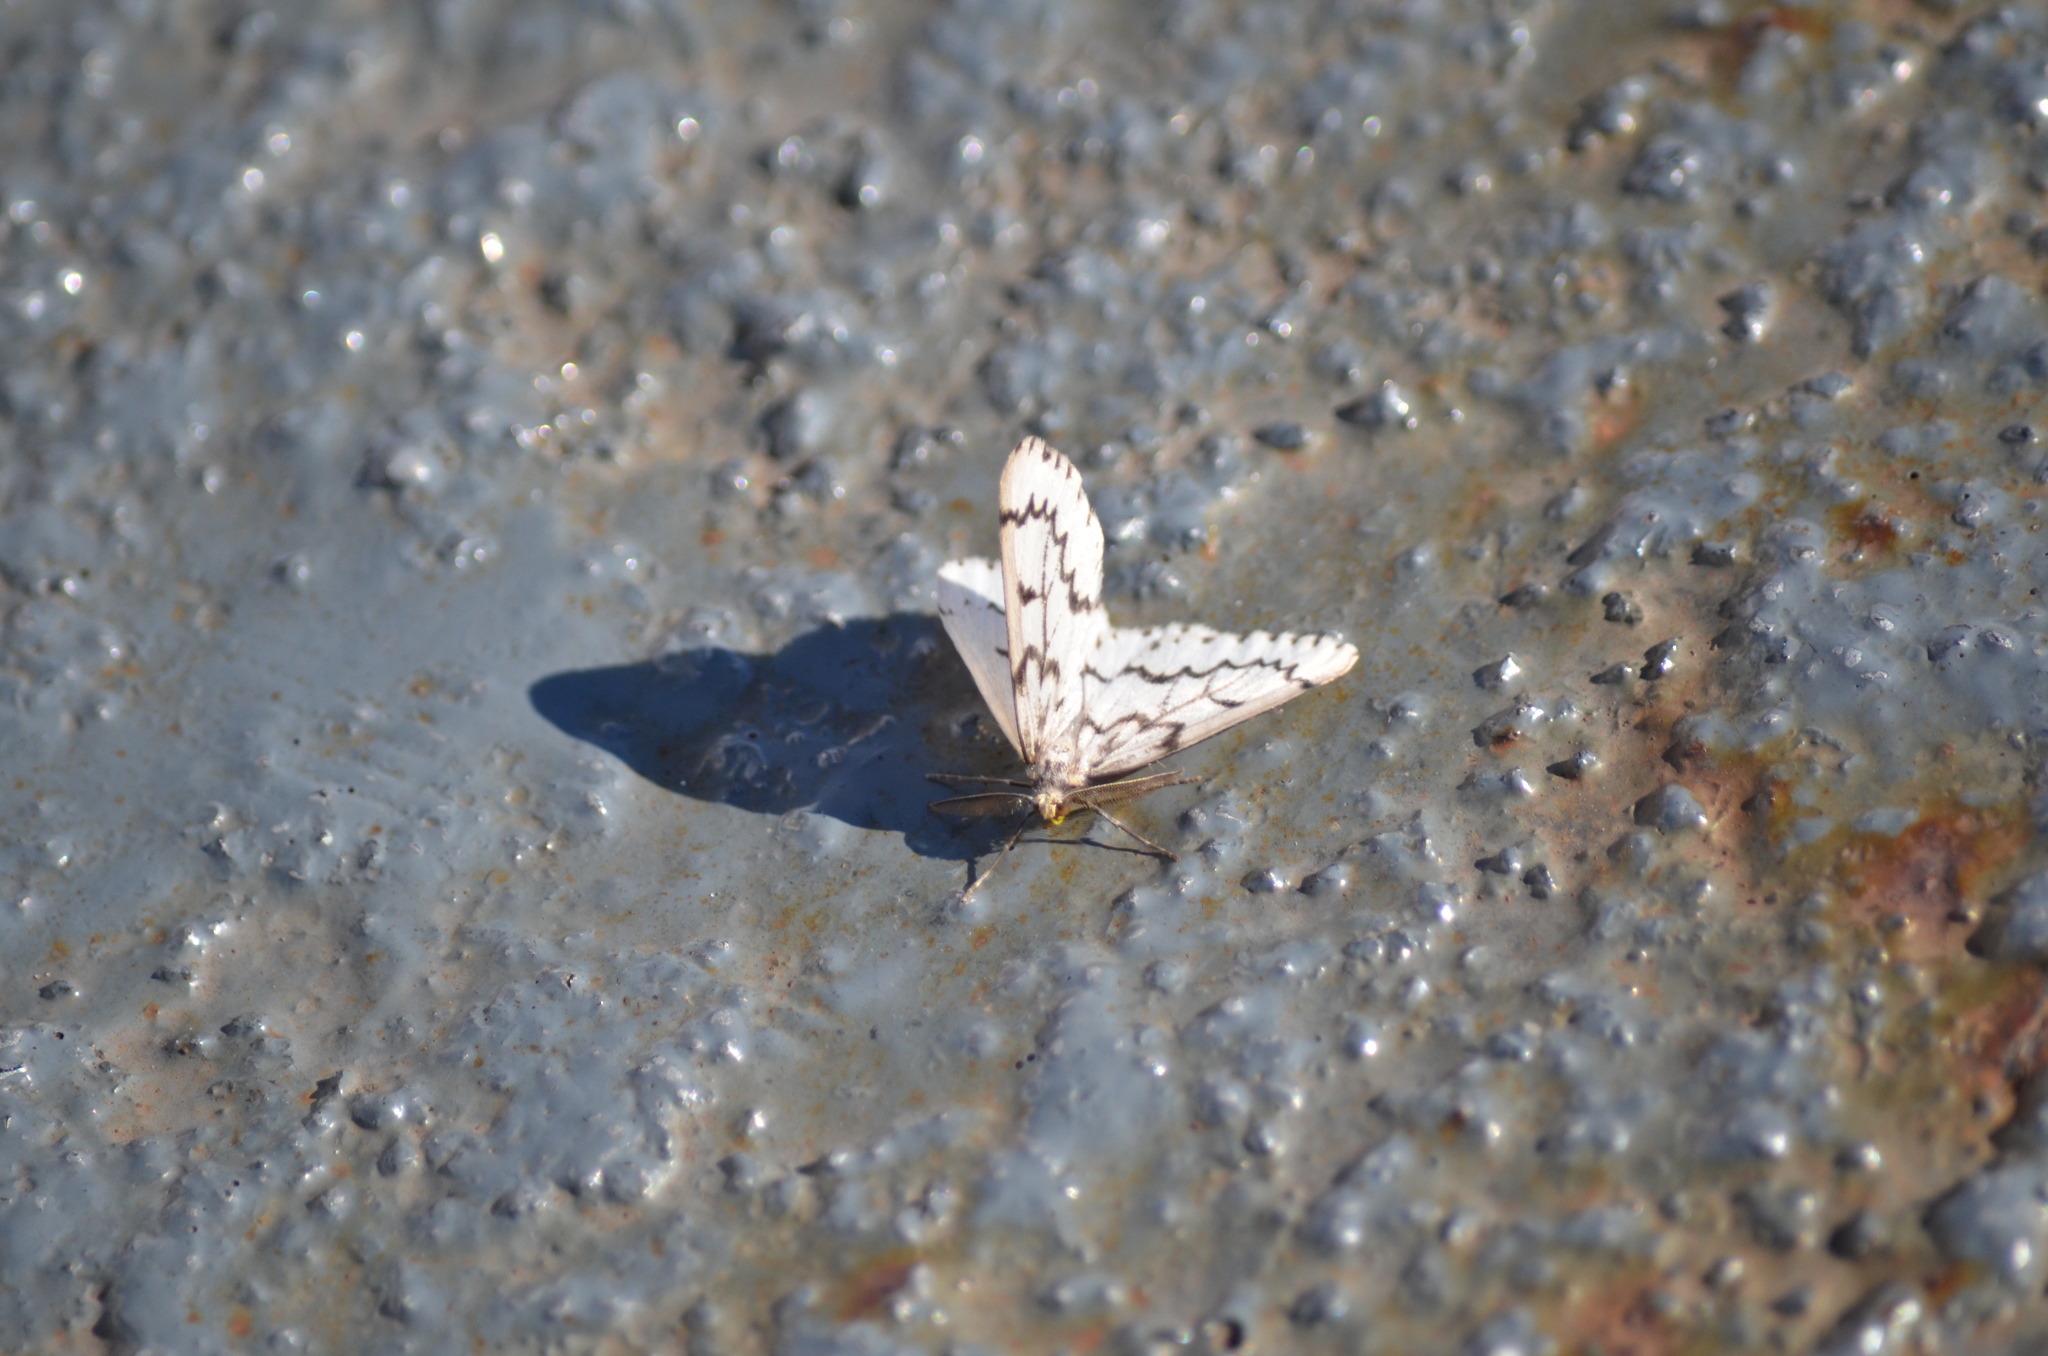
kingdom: Animalia
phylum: Arthropoda
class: Insecta
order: Lepidoptera
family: Geometridae
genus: Nepytia
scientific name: Nepytia phantasmaria
